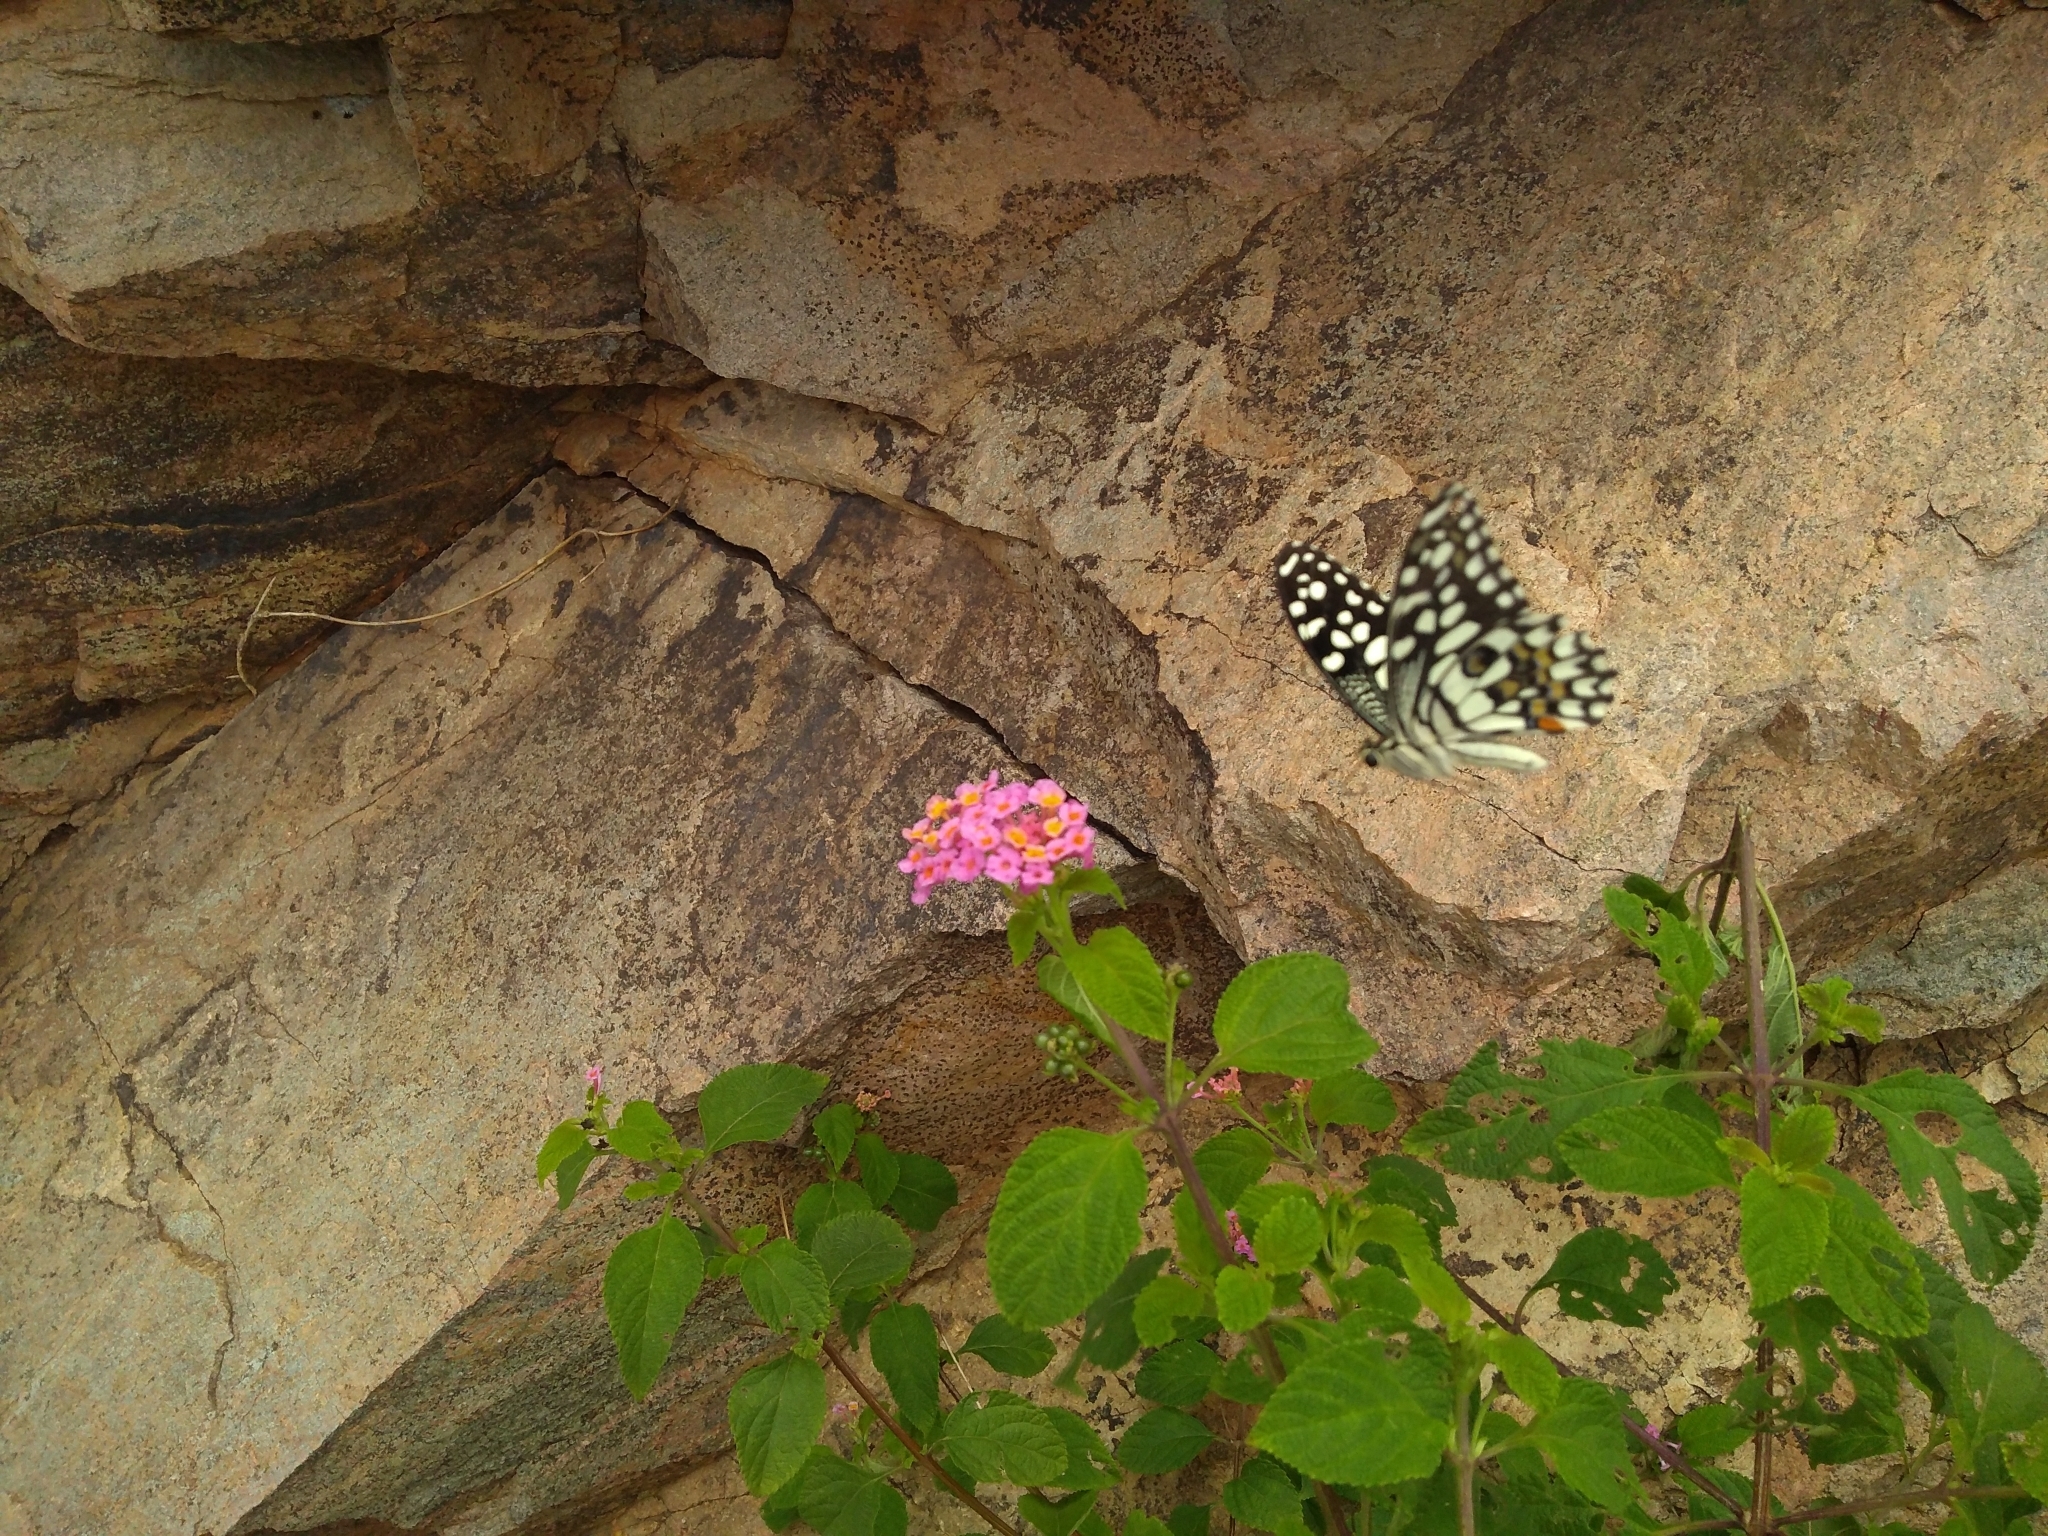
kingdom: Animalia
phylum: Arthropoda
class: Insecta
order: Lepidoptera
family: Papilionidae
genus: Papilio
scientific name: Papilio demoleus
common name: Lime butterfly
